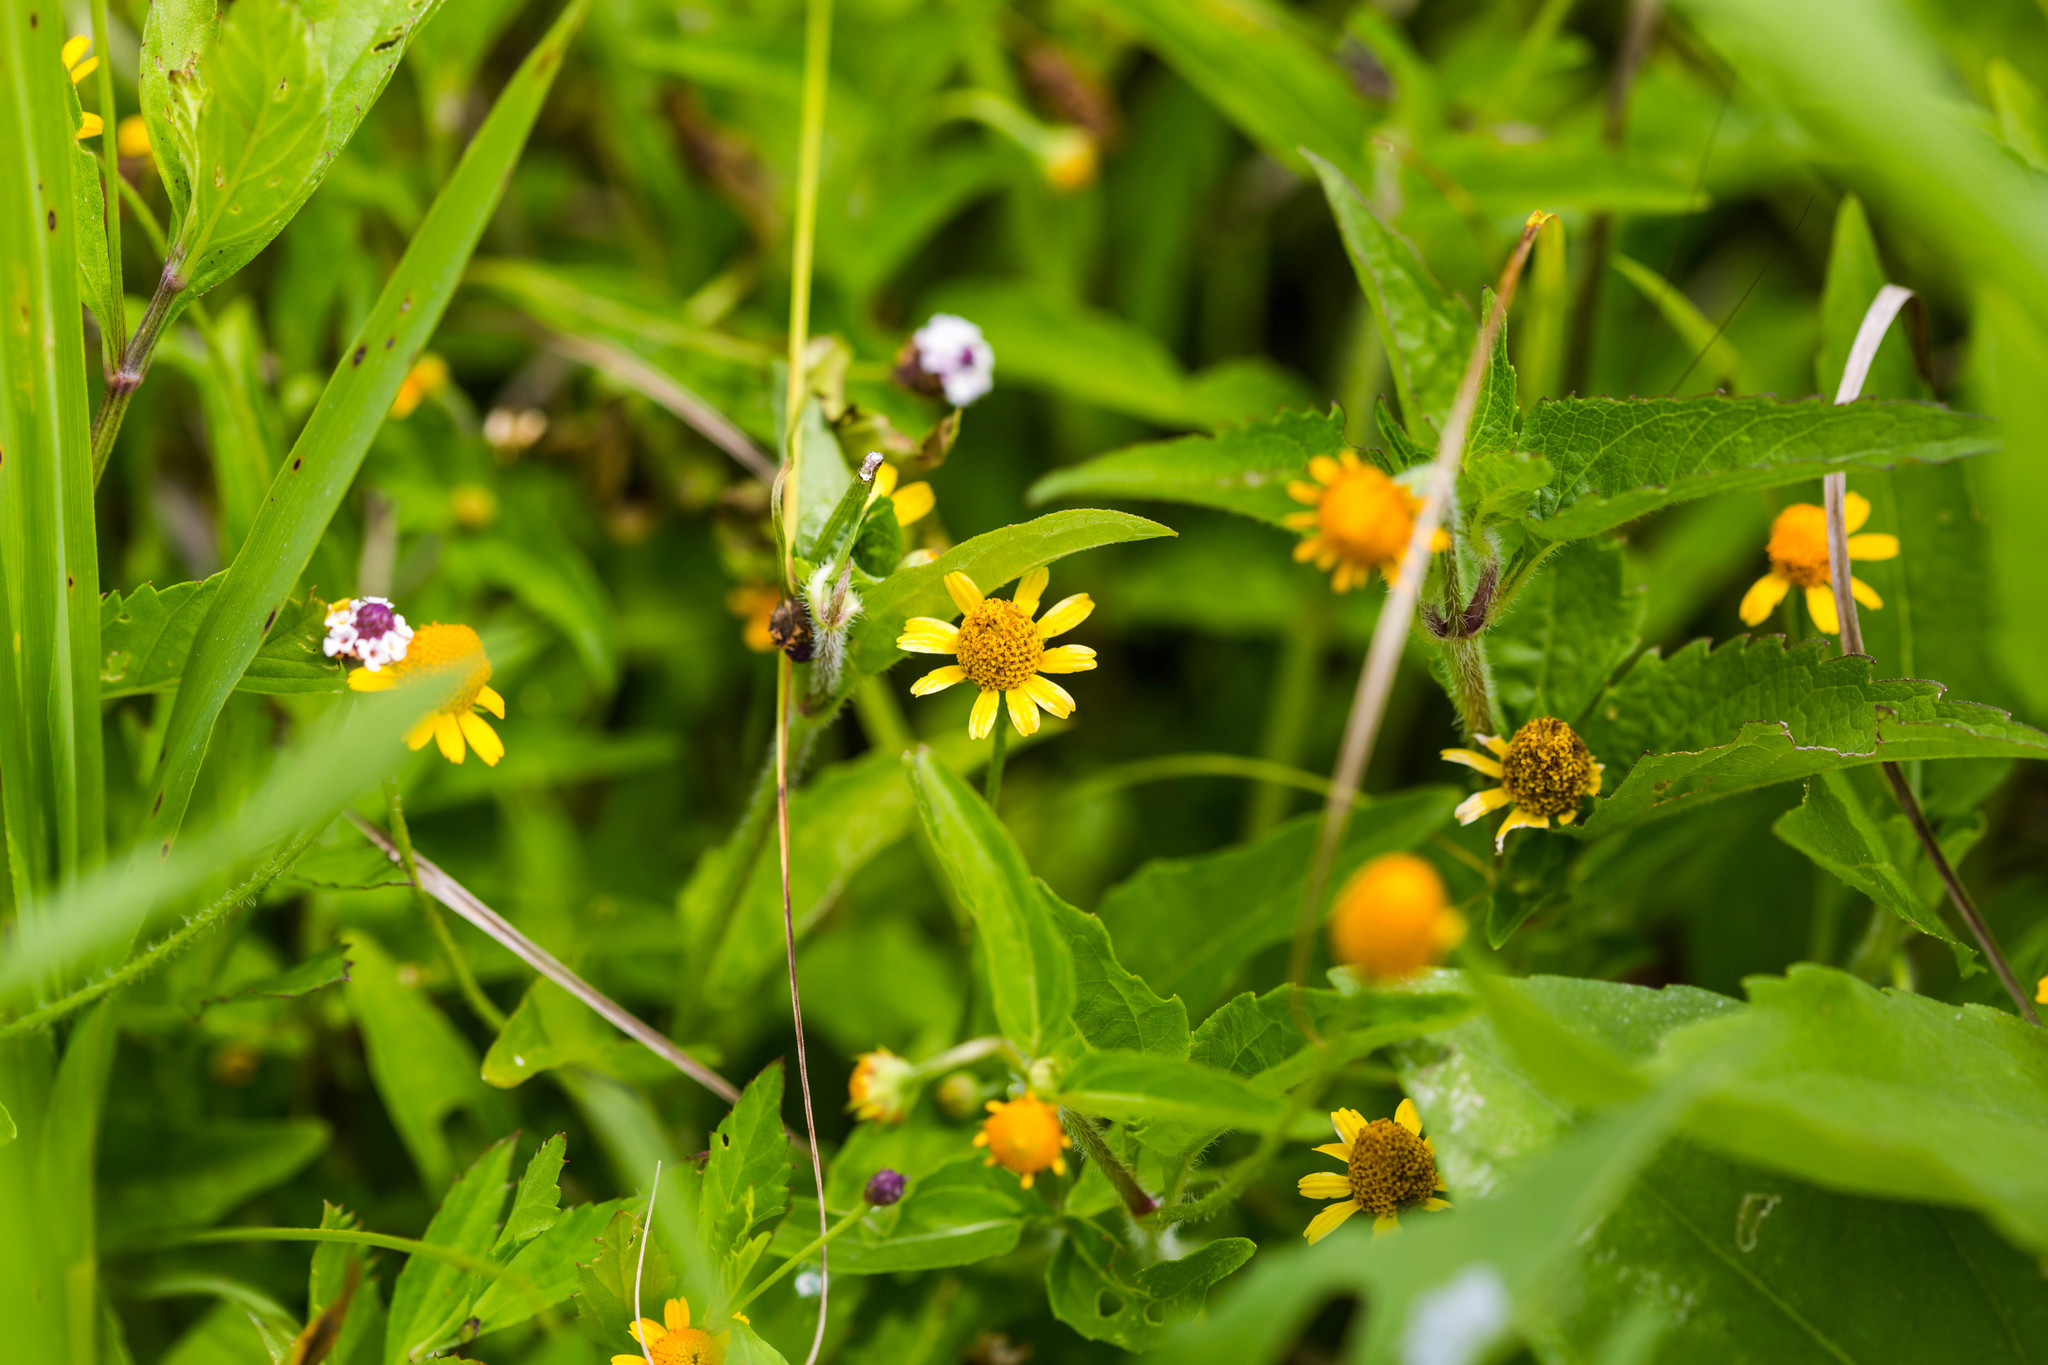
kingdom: Plantae
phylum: Tracheophyta
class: Magnoliopsida
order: Asterales
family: Asteraceae
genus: Acmella
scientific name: Acmella repens
